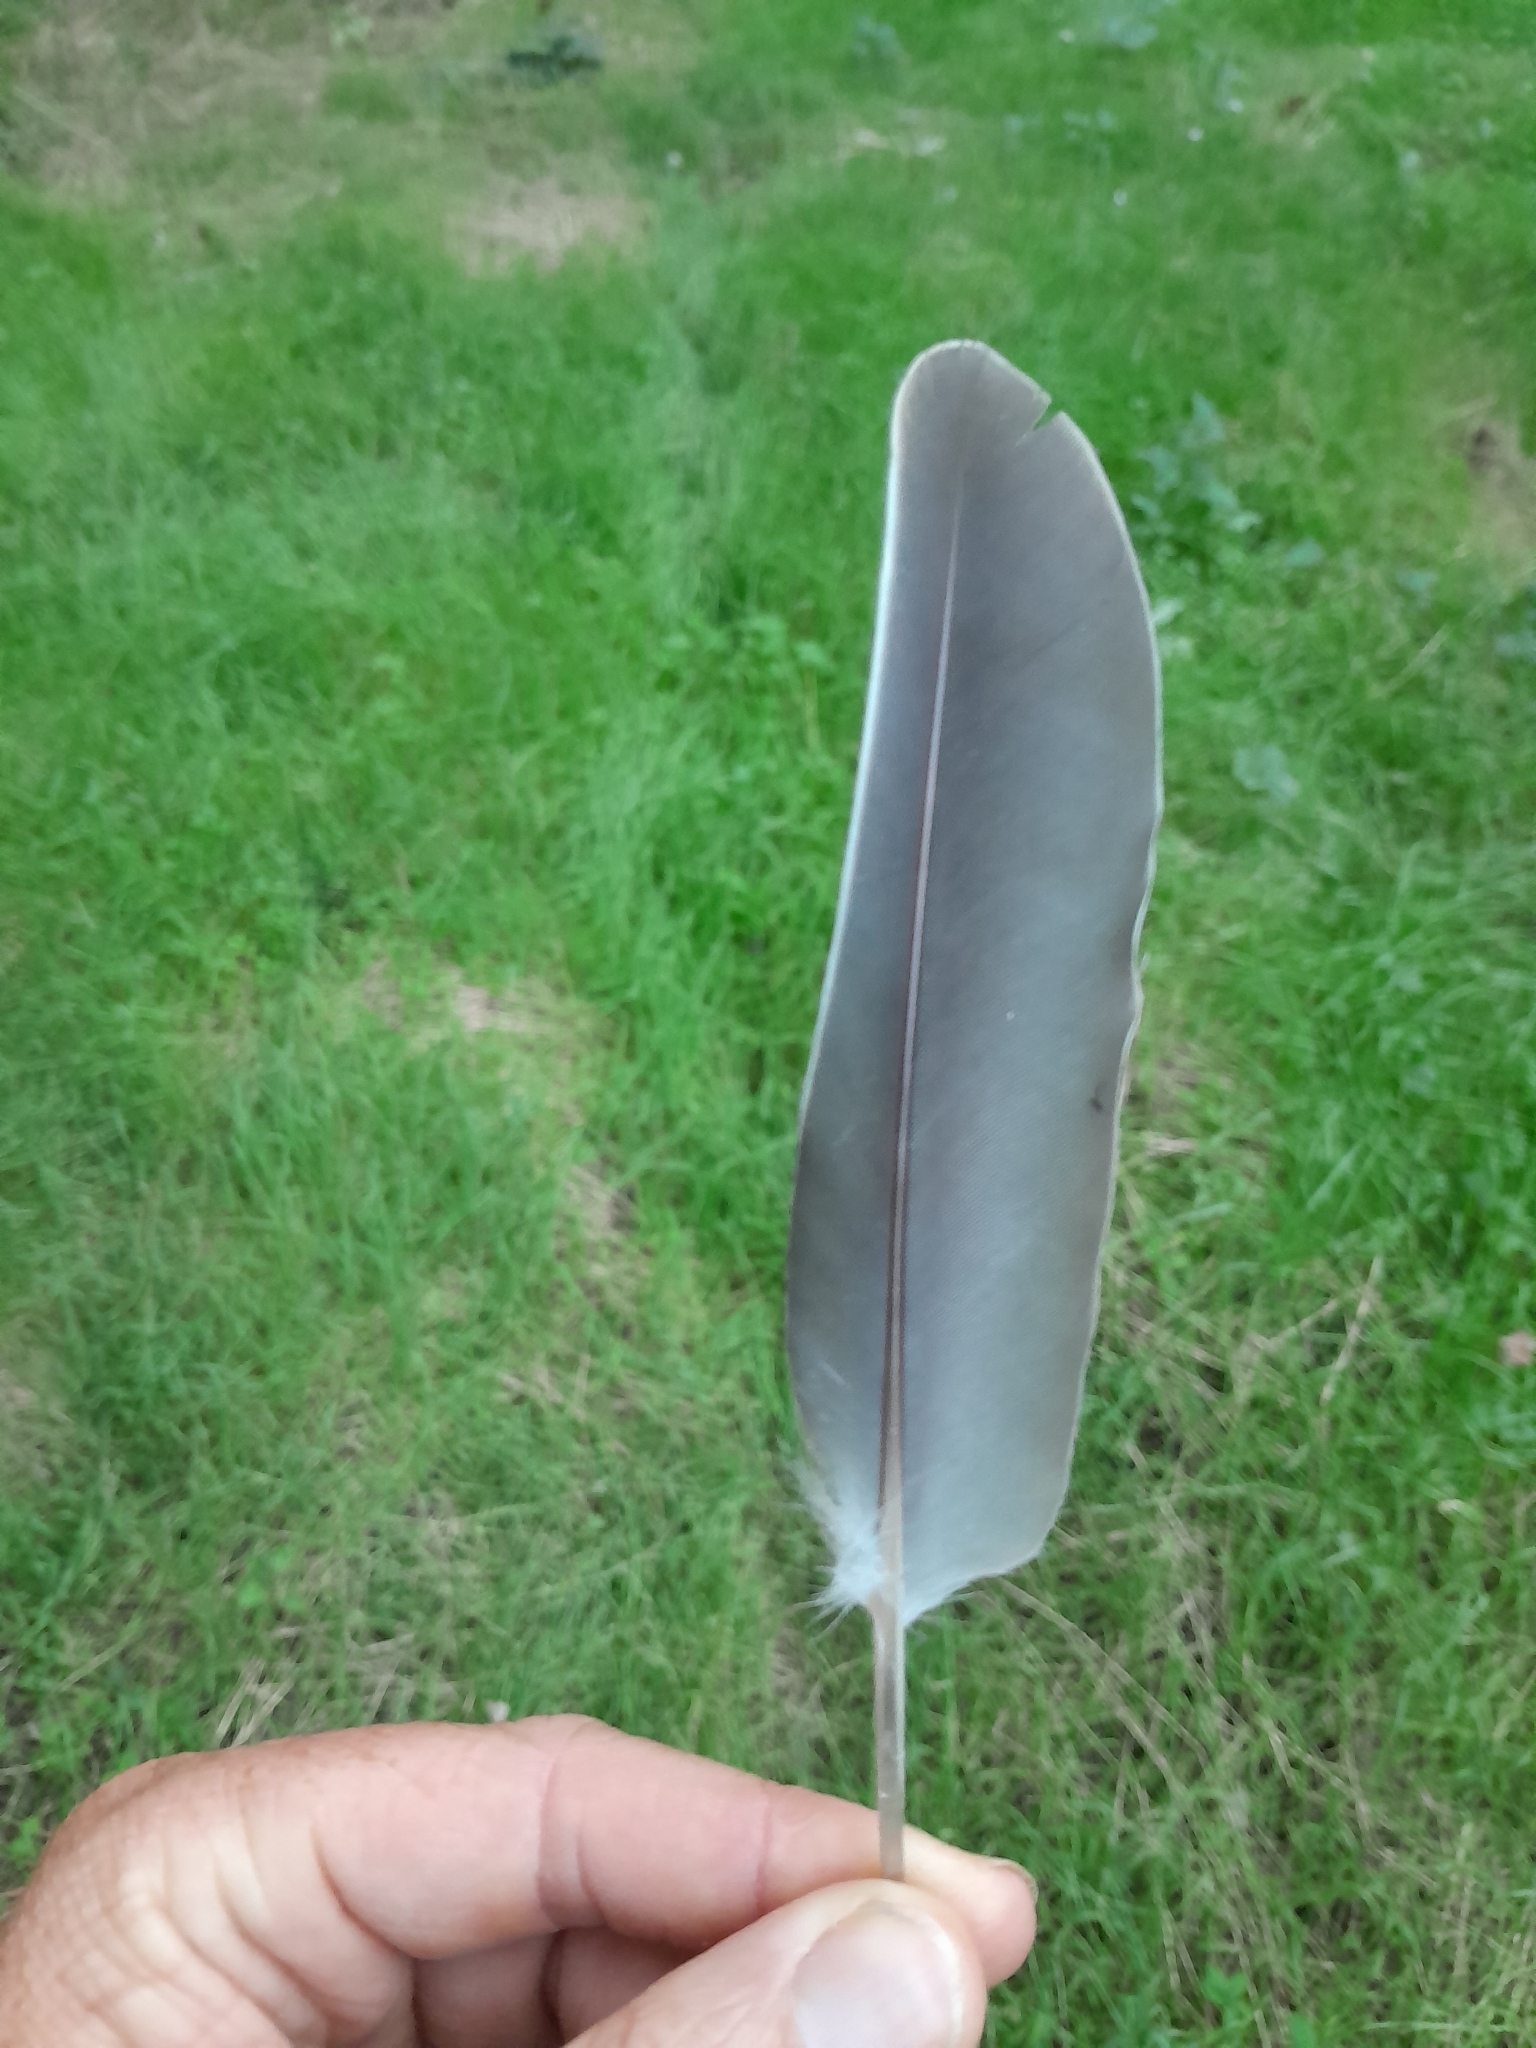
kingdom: Animalia
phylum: Chordata
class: Aves
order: Columbiformes
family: Columbidae
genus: Columba
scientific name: Columba palumbus
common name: Common wood pigeon
